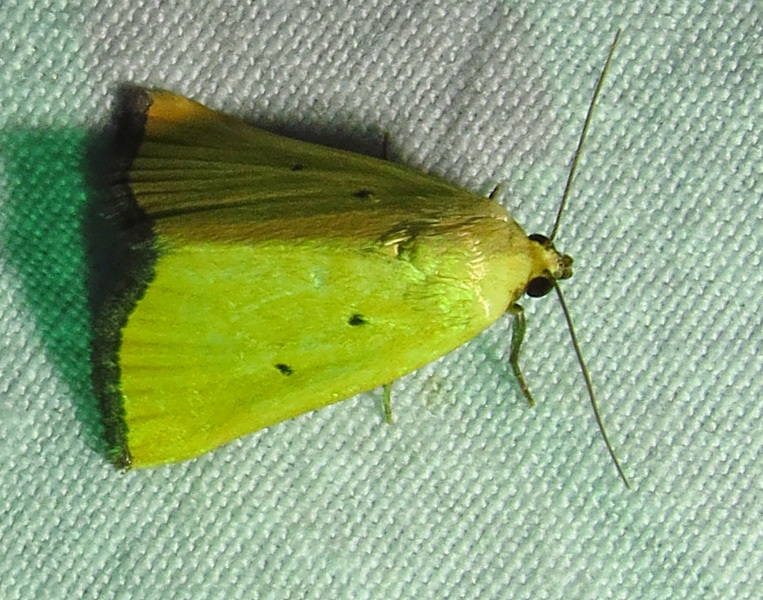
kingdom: Animalia
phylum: Arthropoda
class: Insecta
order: Lepidoptera
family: Noctuidae
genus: Marimatha
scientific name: Marimatha nigrofimbria
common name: Black-bordered lemon moth
